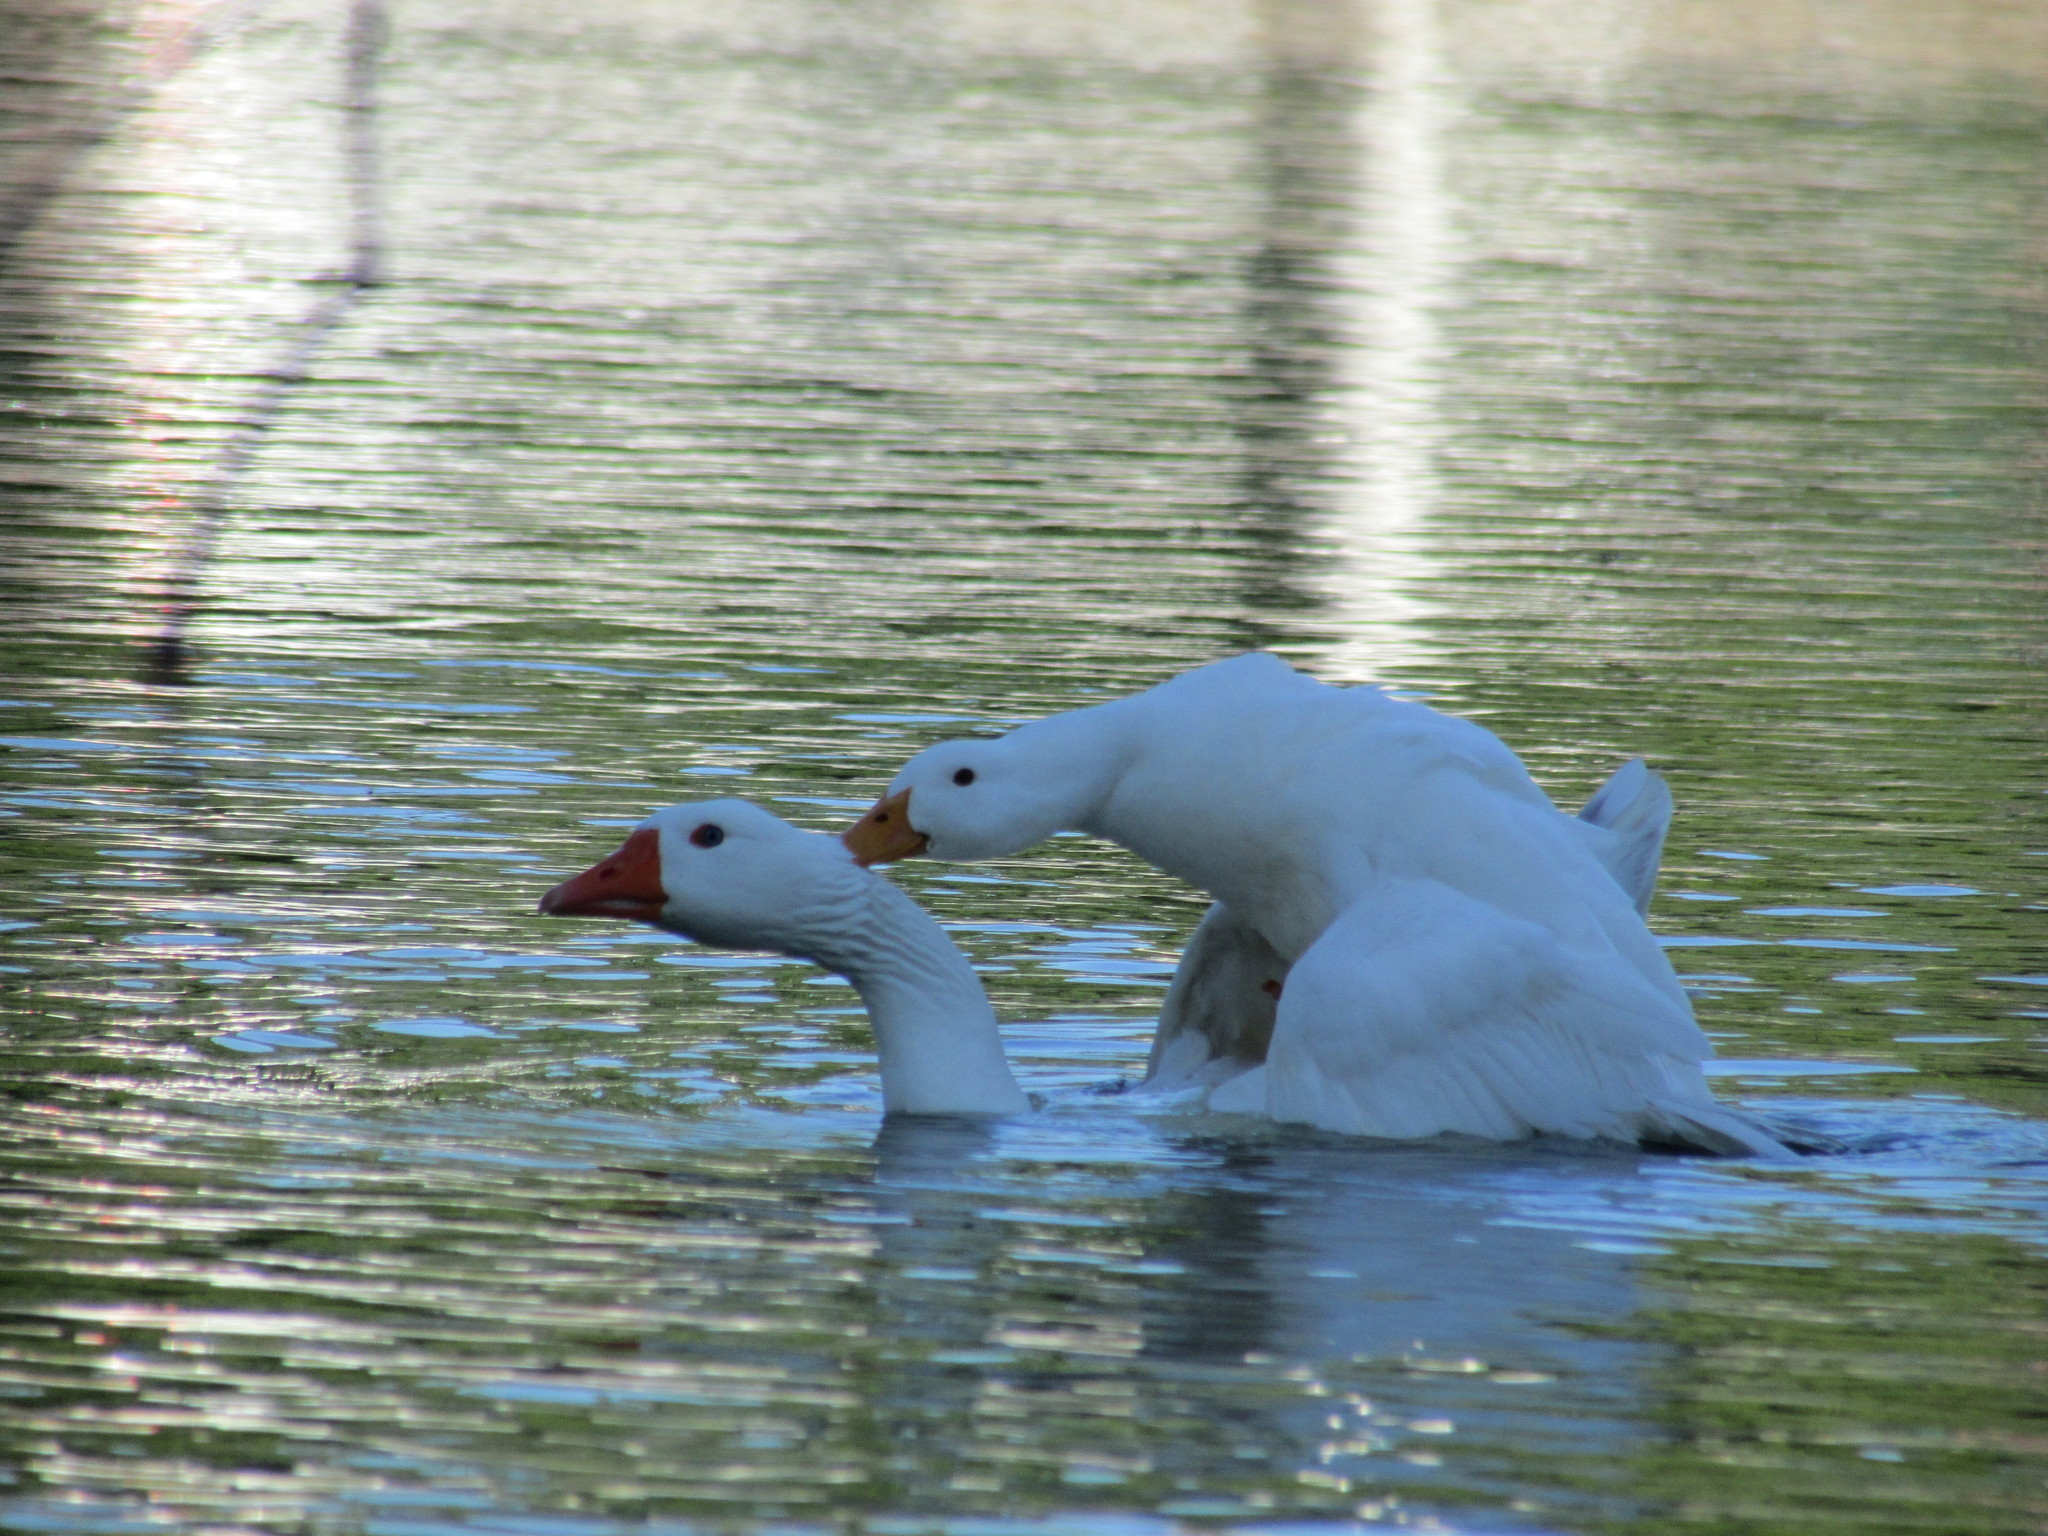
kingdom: Animalia
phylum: Chordata
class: Aves
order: Anseriformes
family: Anatidae
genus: Anas
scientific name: Anas platyrhynchos
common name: Mallard
